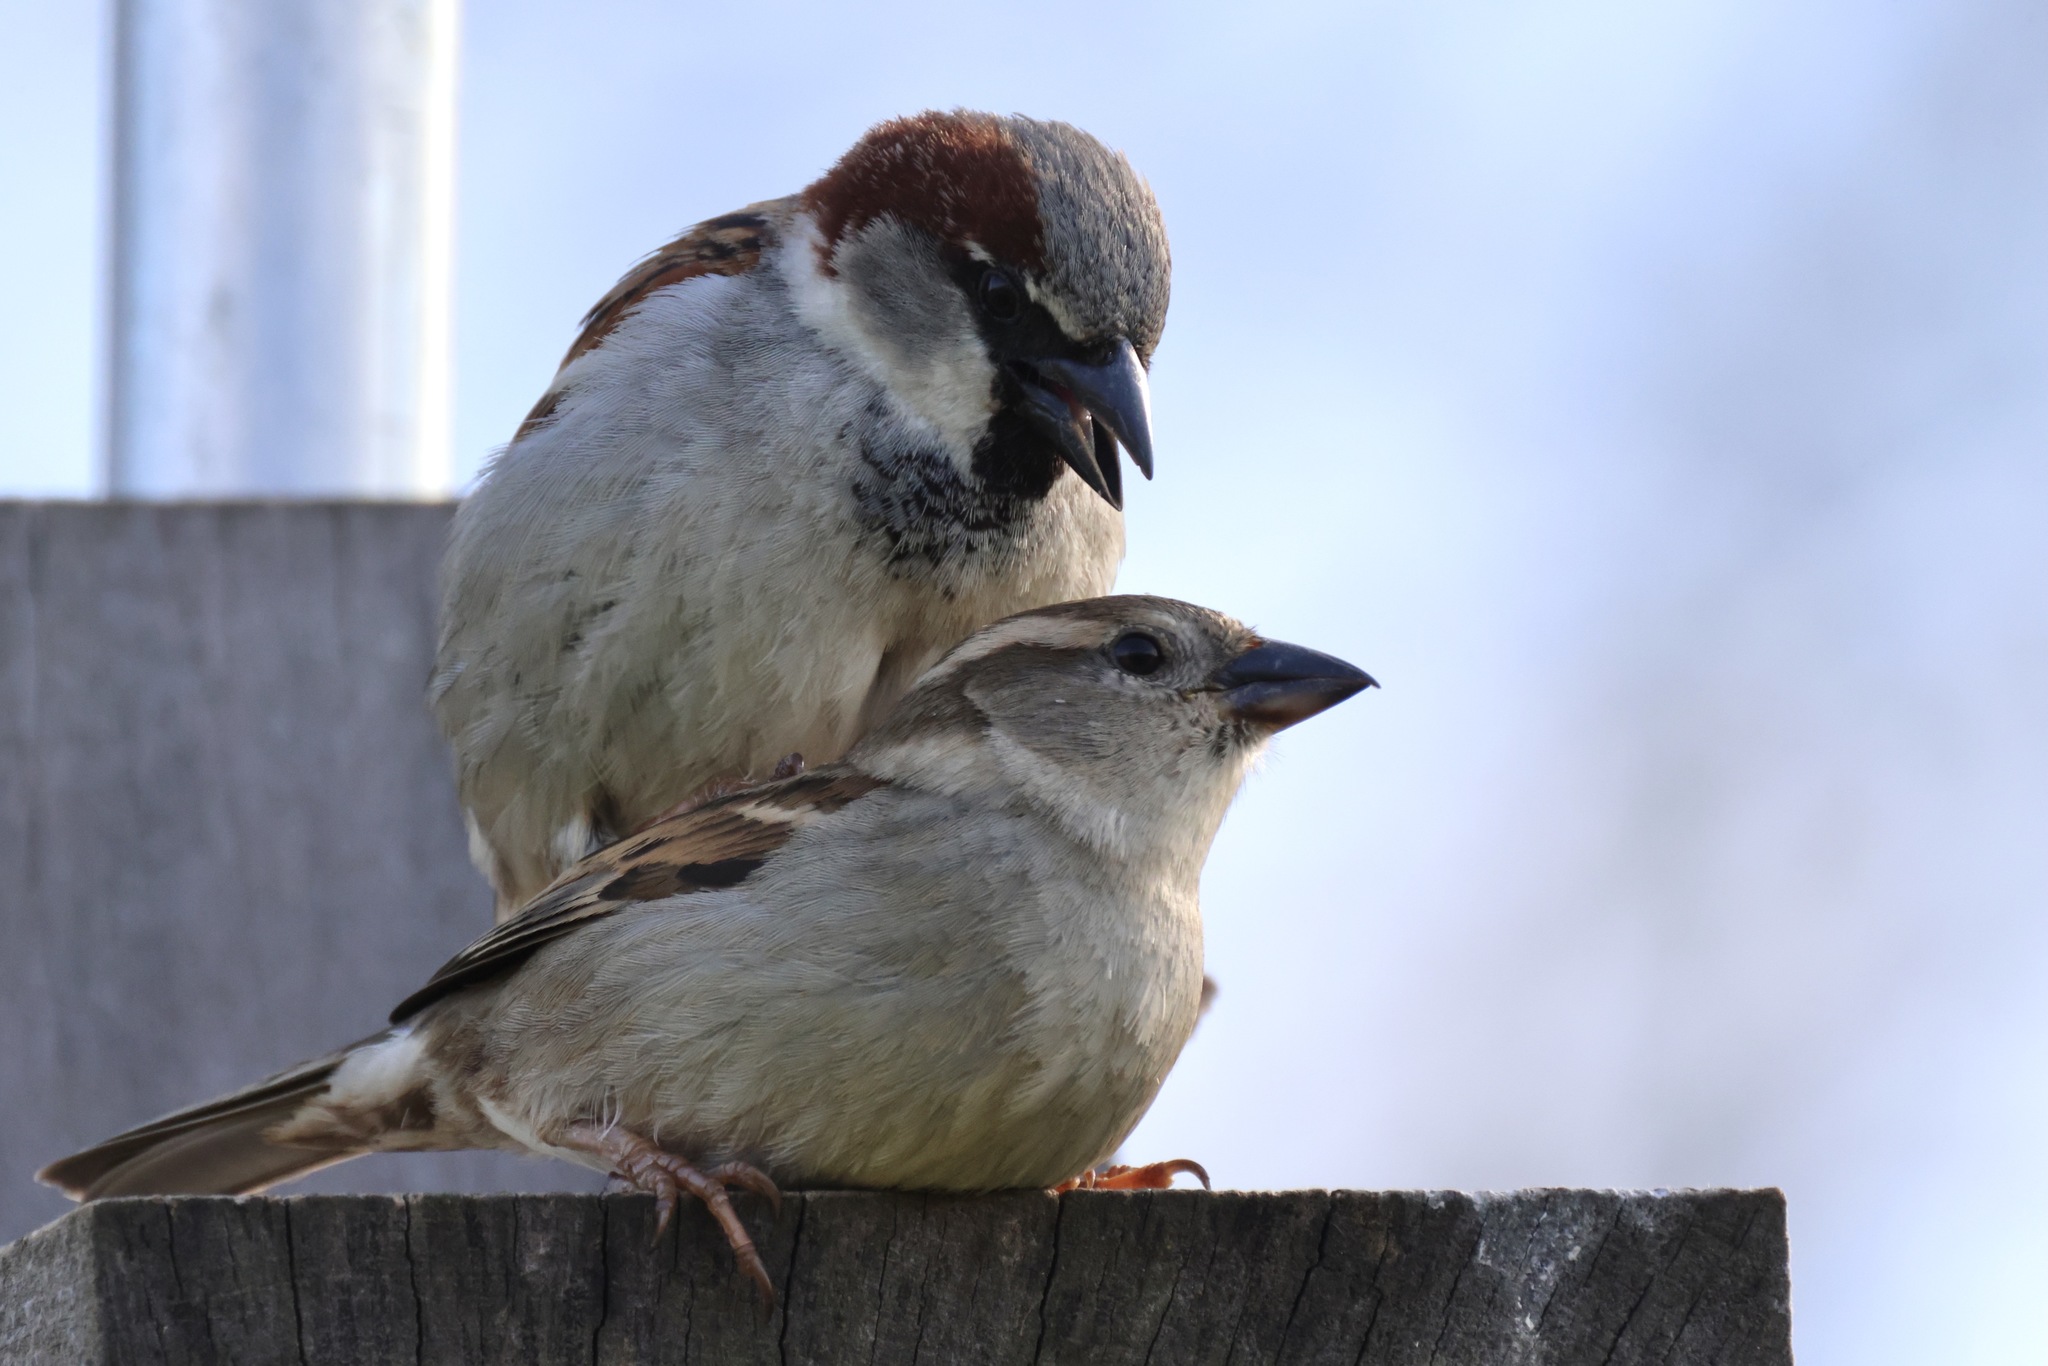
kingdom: Animalia
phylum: Chordata
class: Aves
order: Passeriformes
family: Passeridae
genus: Passer
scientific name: Passer domesticus
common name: House sparrow
